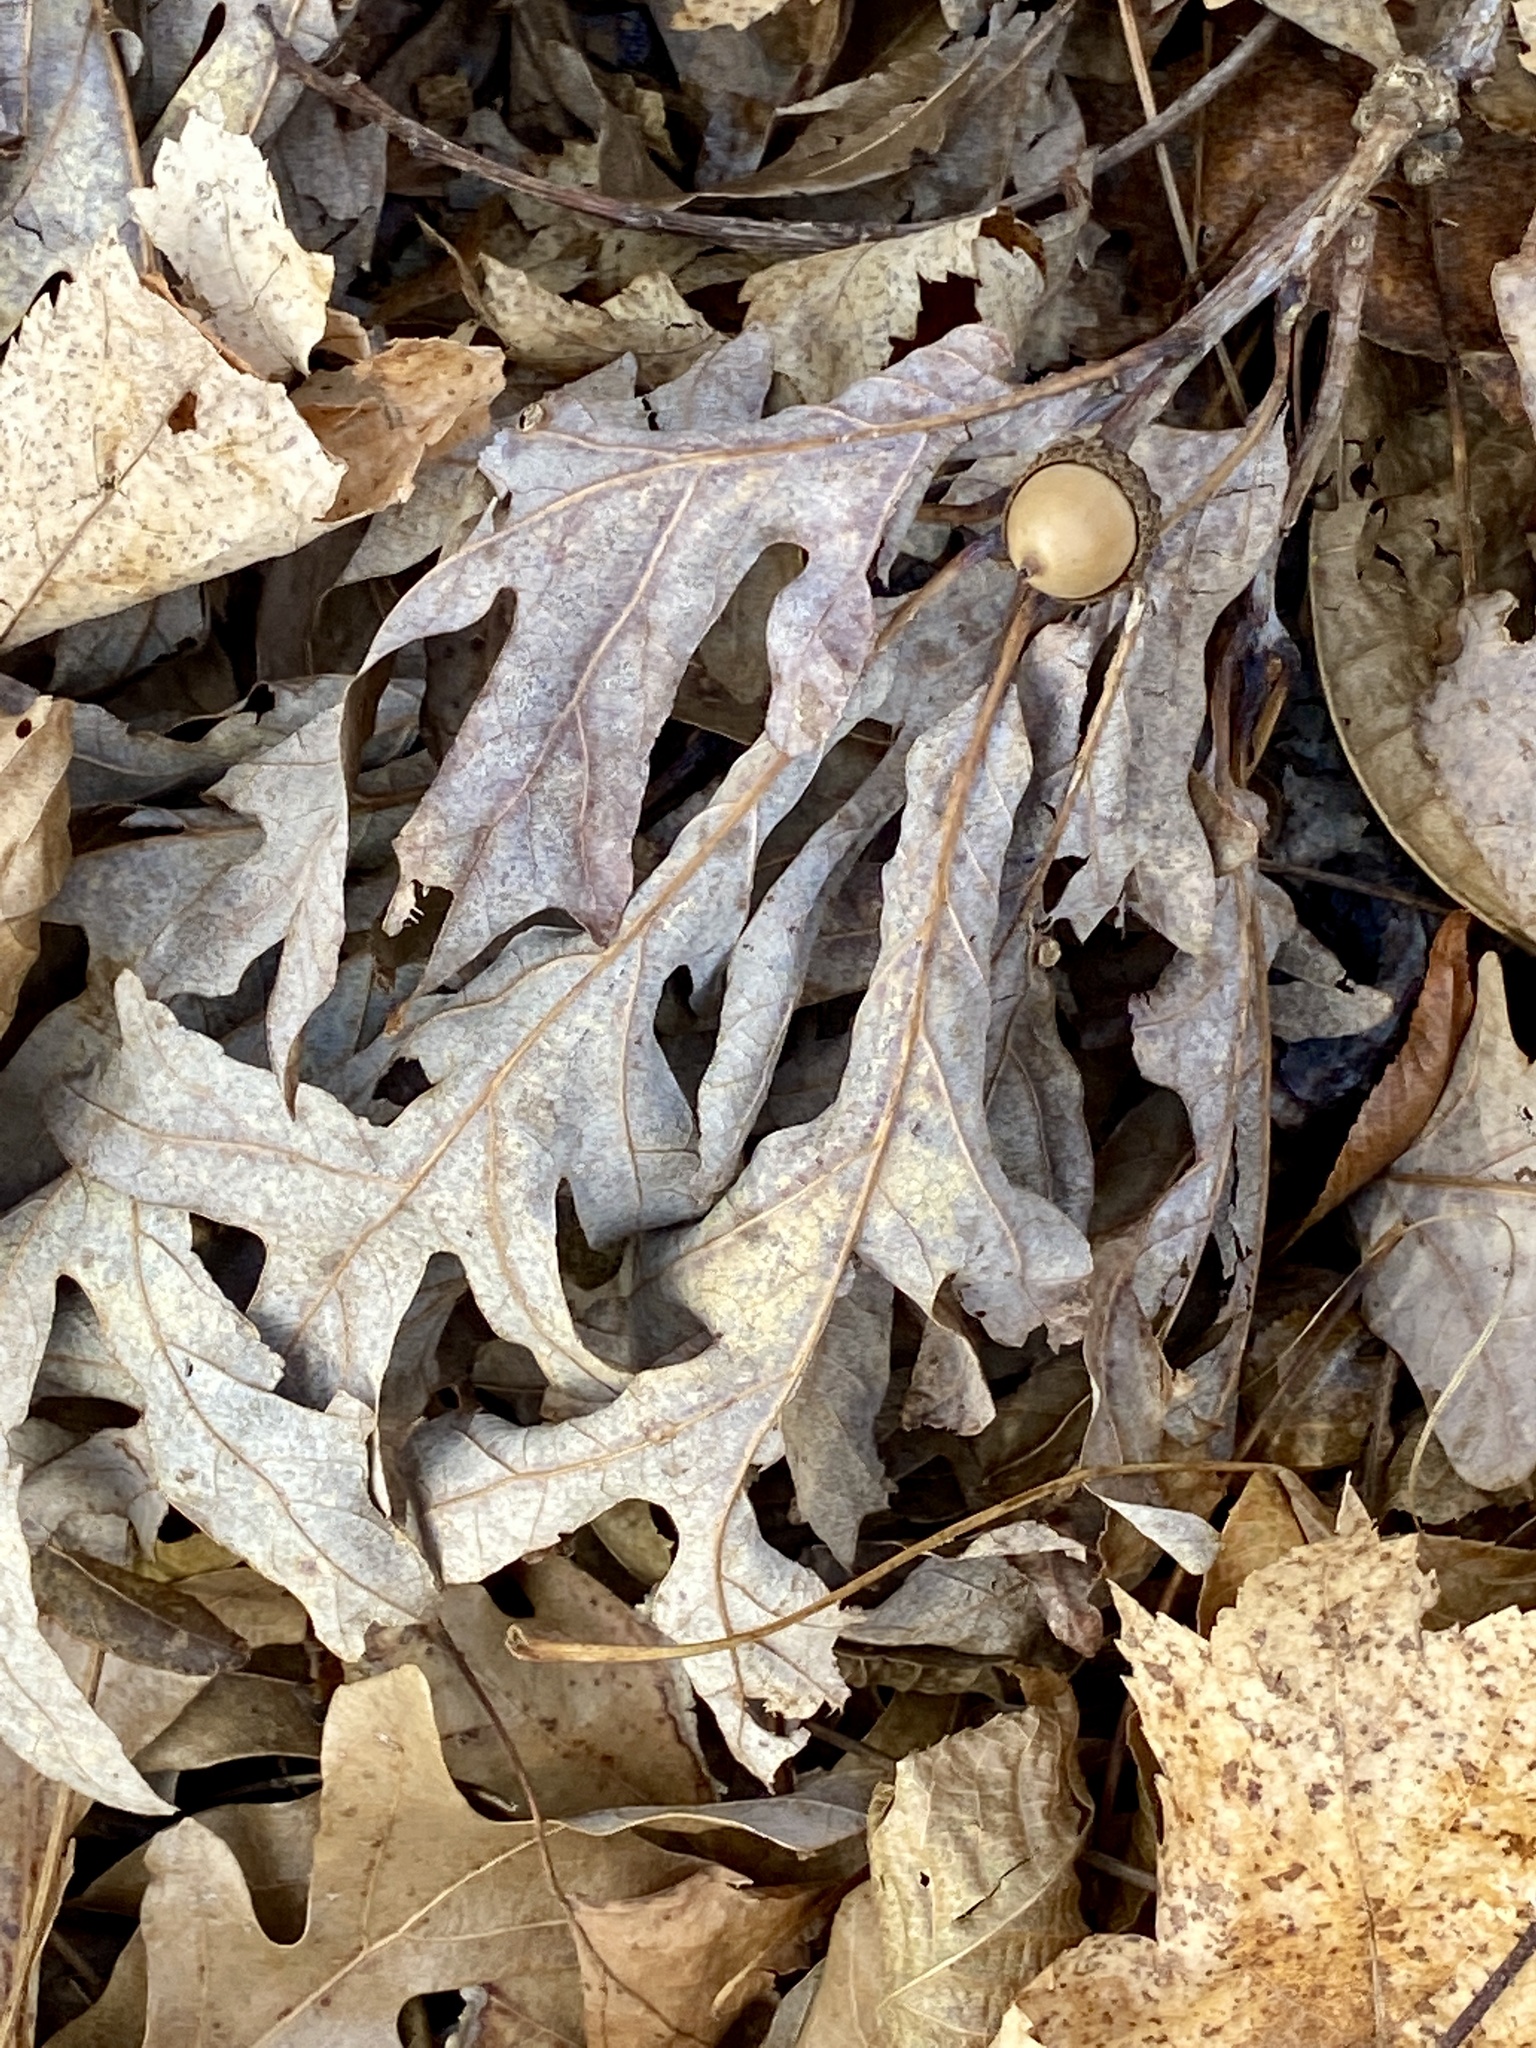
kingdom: Plantae
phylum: Tracheophyta
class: Magnoliopsida
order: Fagales
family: Fagaceae
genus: Quercus
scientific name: Quercus alba
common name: White oak
